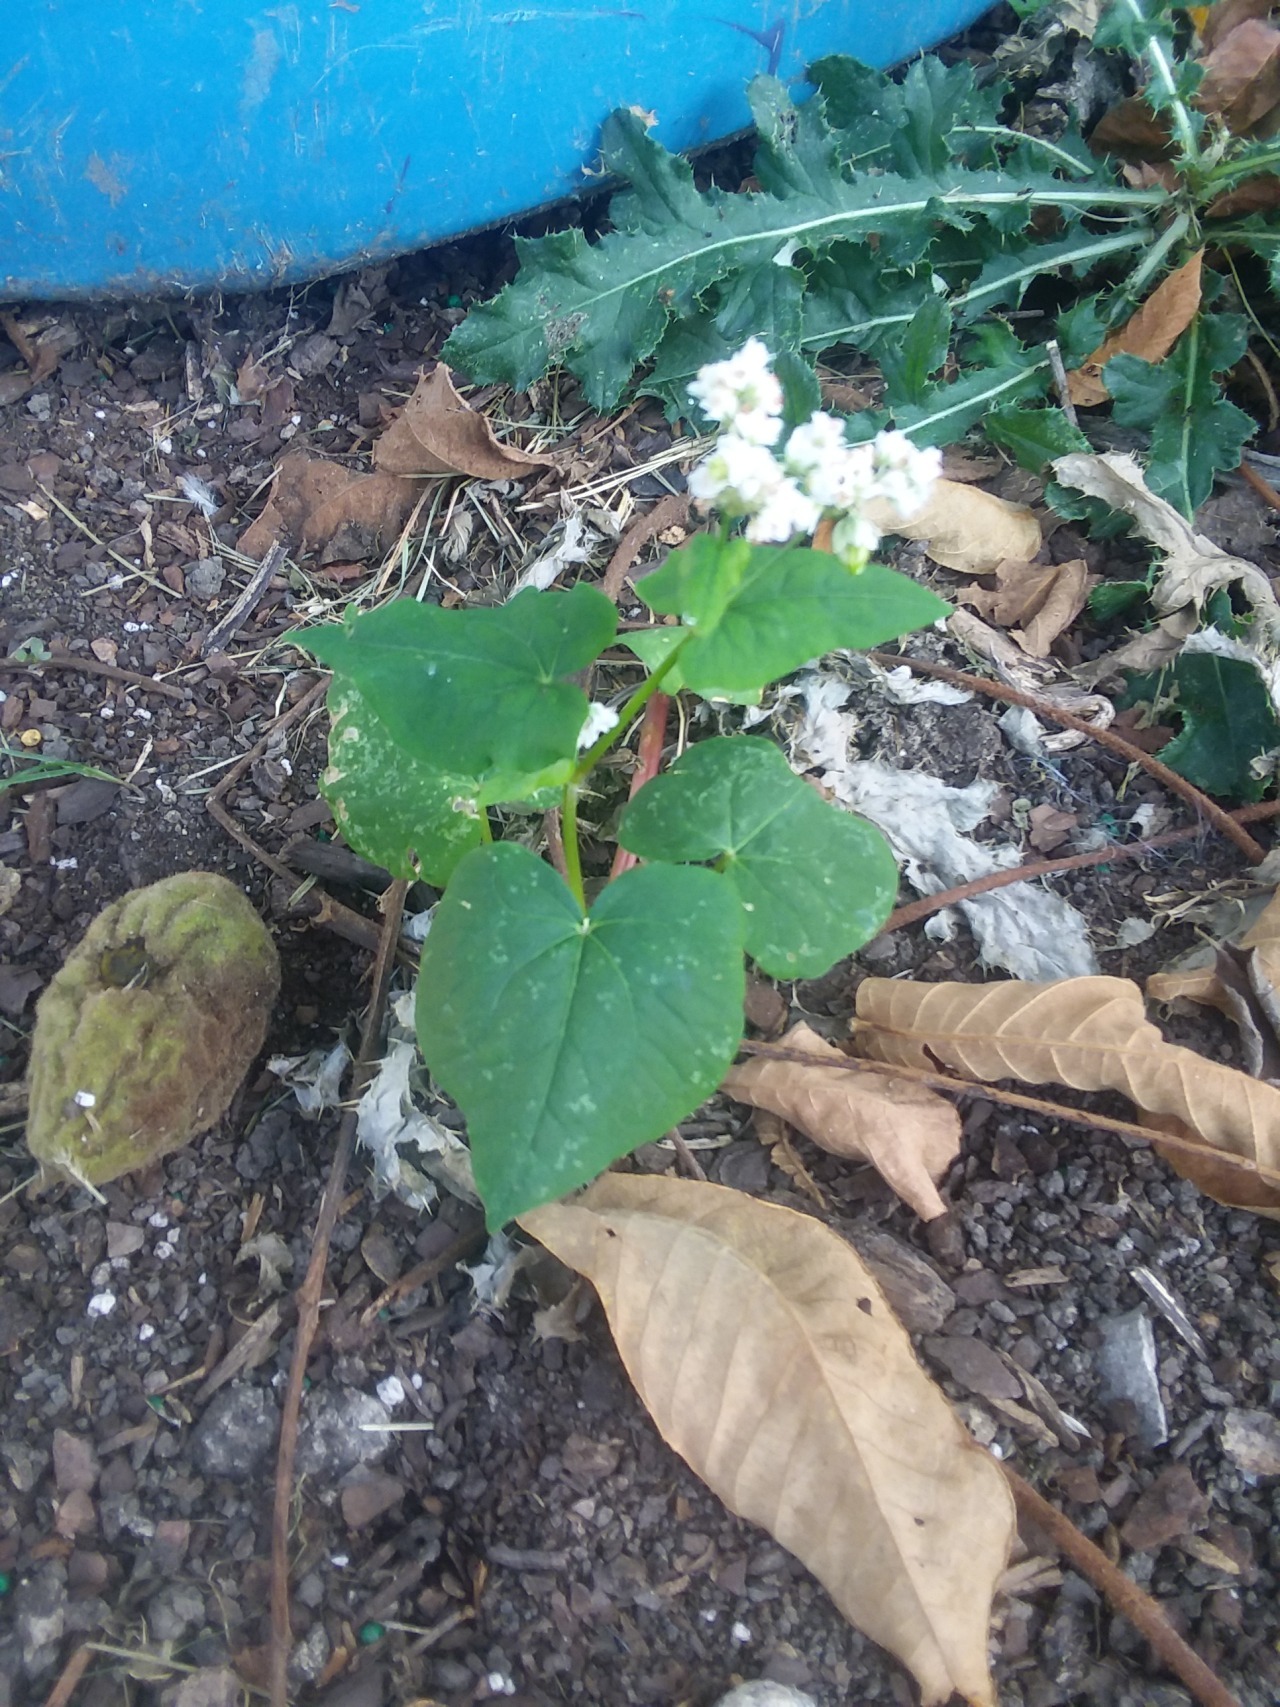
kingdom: Plantae
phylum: Tracheophyta
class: Magnoliopsida
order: Fagales
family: Juglandaceae
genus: Juglans
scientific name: Juglans cinerea
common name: Butternut
